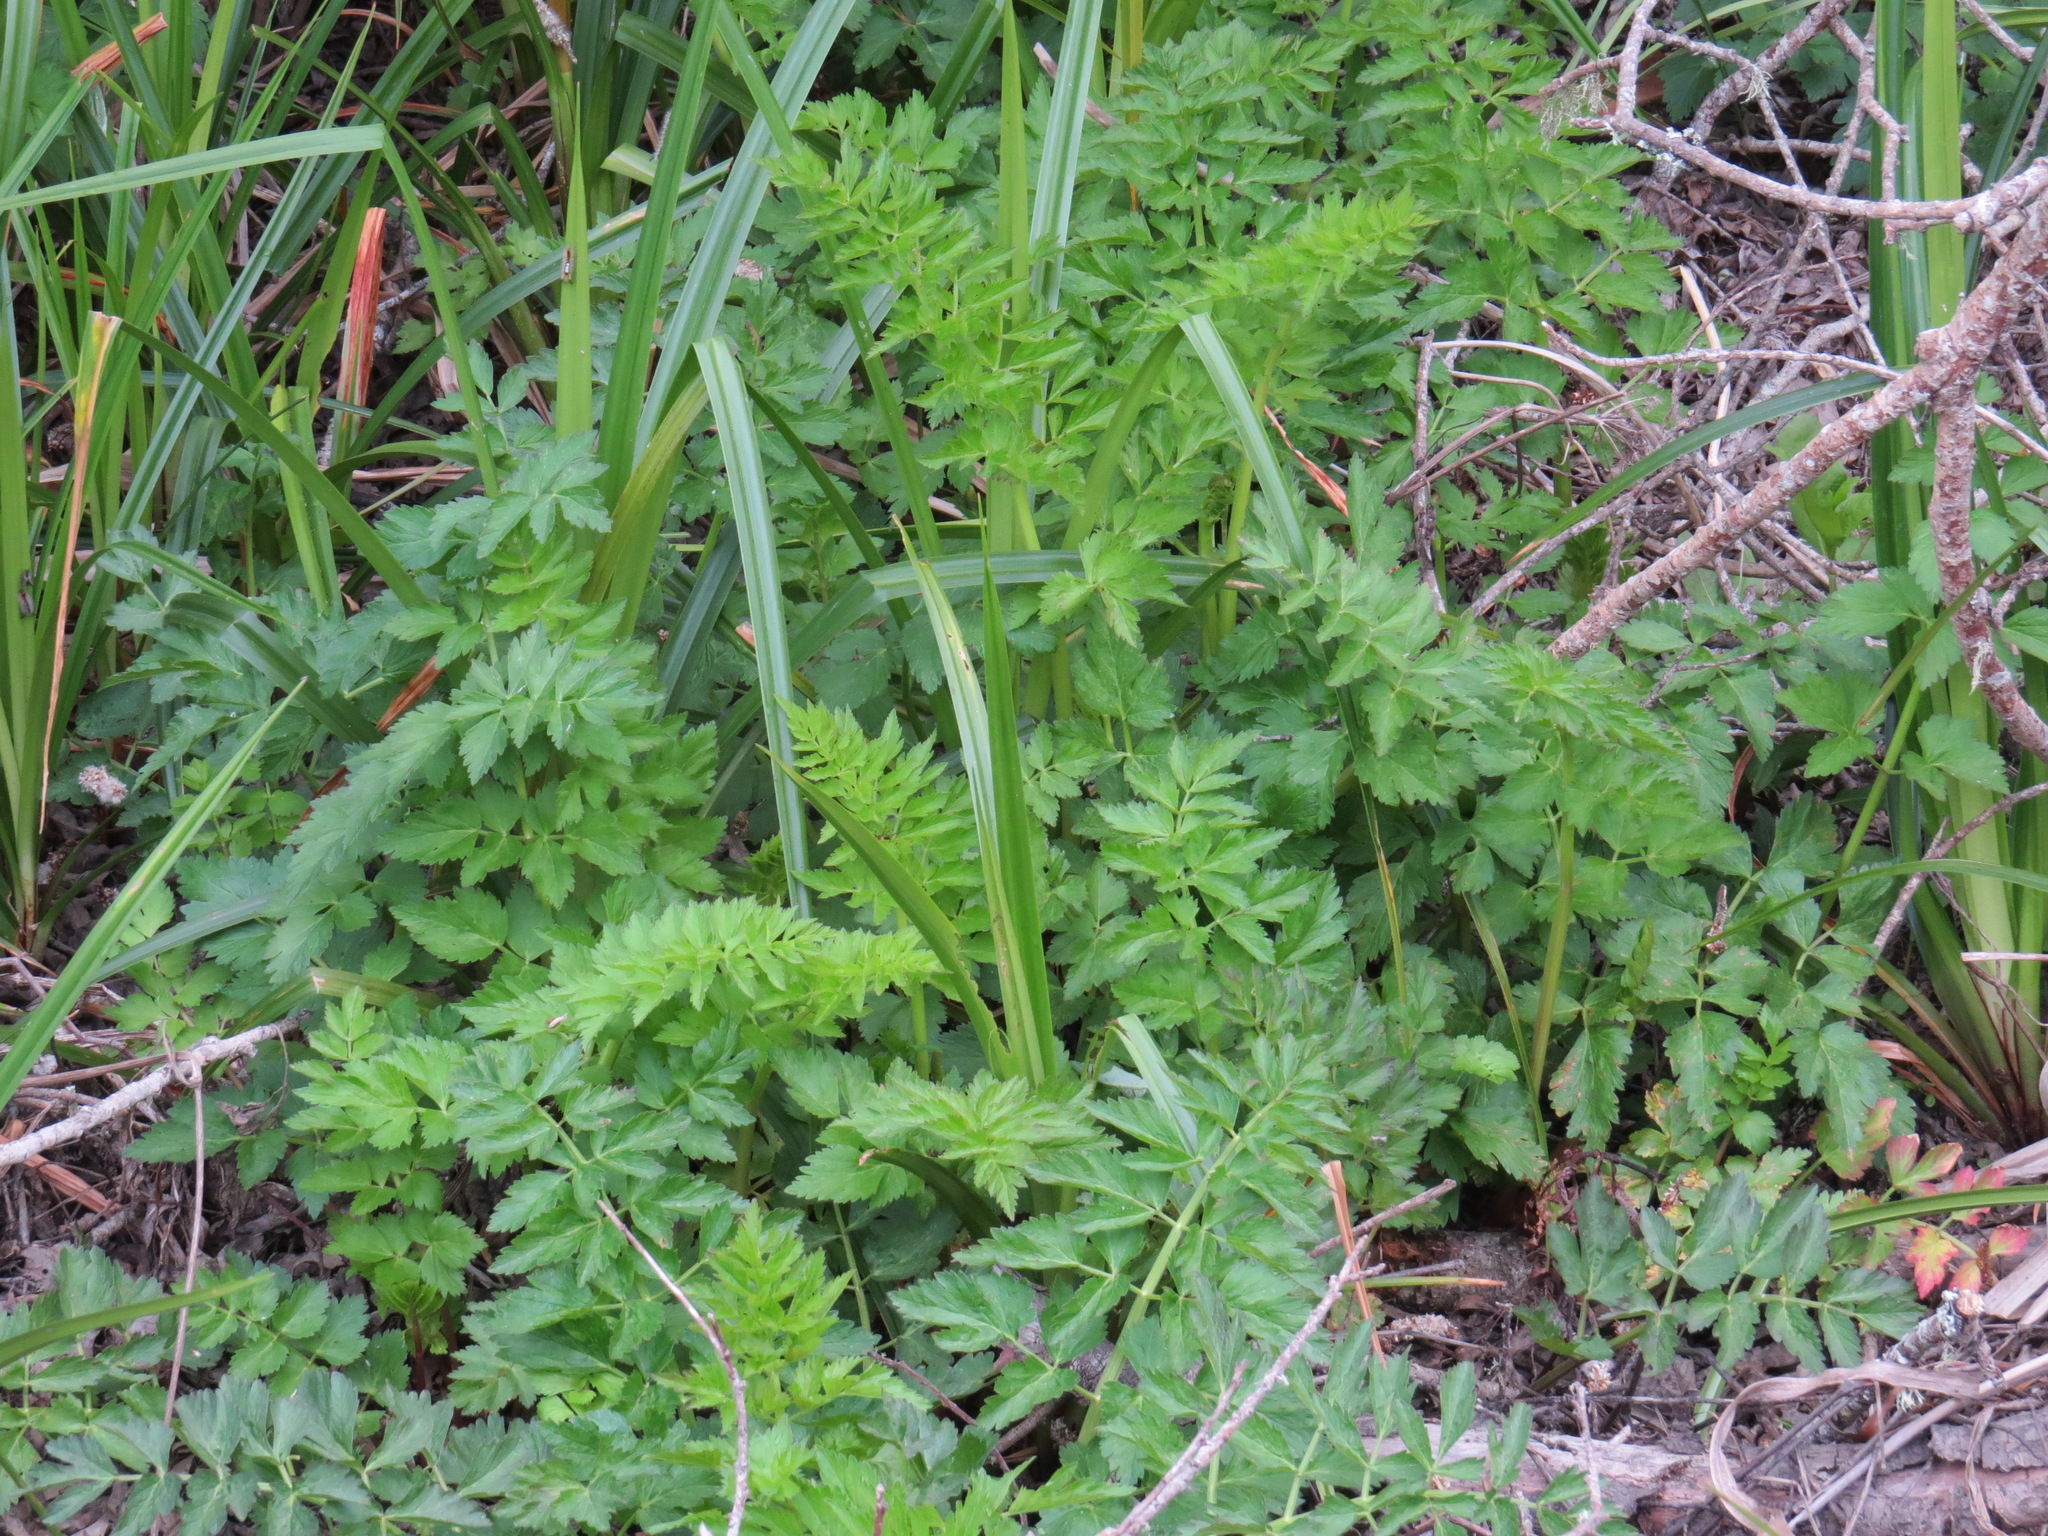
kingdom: Plantae
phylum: Tracheophyta
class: Magnoliopsida
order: Apiales
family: Apiaceae
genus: Oenanthe
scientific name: Oenanthe sarmentosa
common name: American water-parsley
